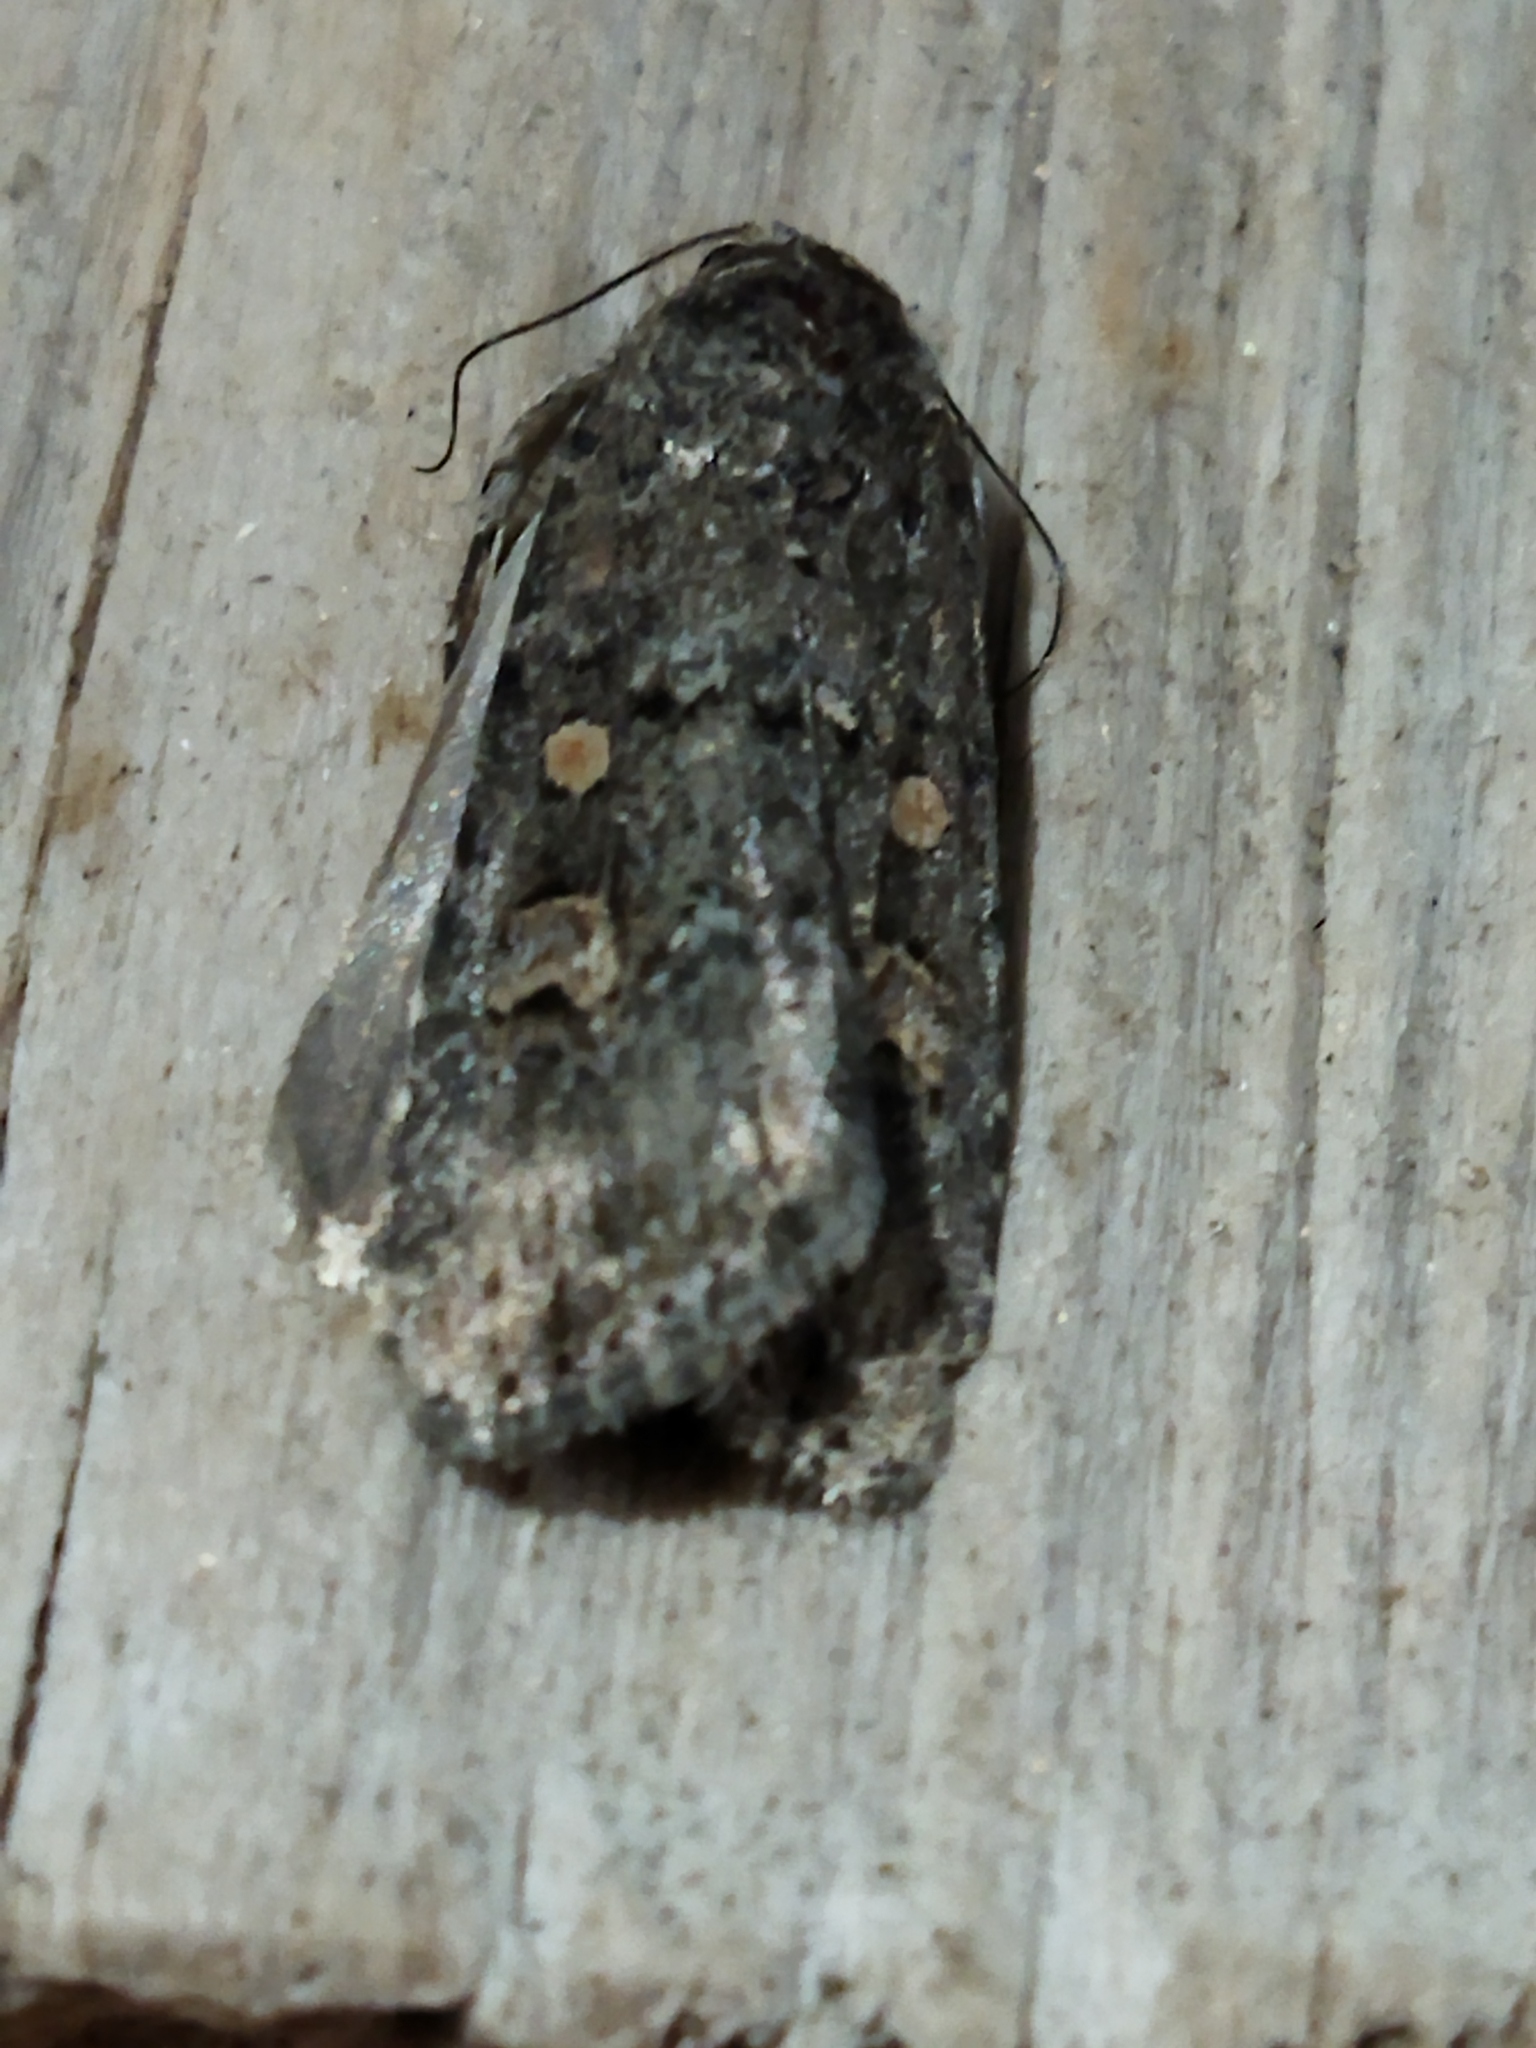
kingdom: Animalia
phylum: Arthropoda
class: Insecta
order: Lepidoptera
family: Noctuidae
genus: Spodoptera
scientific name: Spodoptera exigua
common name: Beet armyworm
